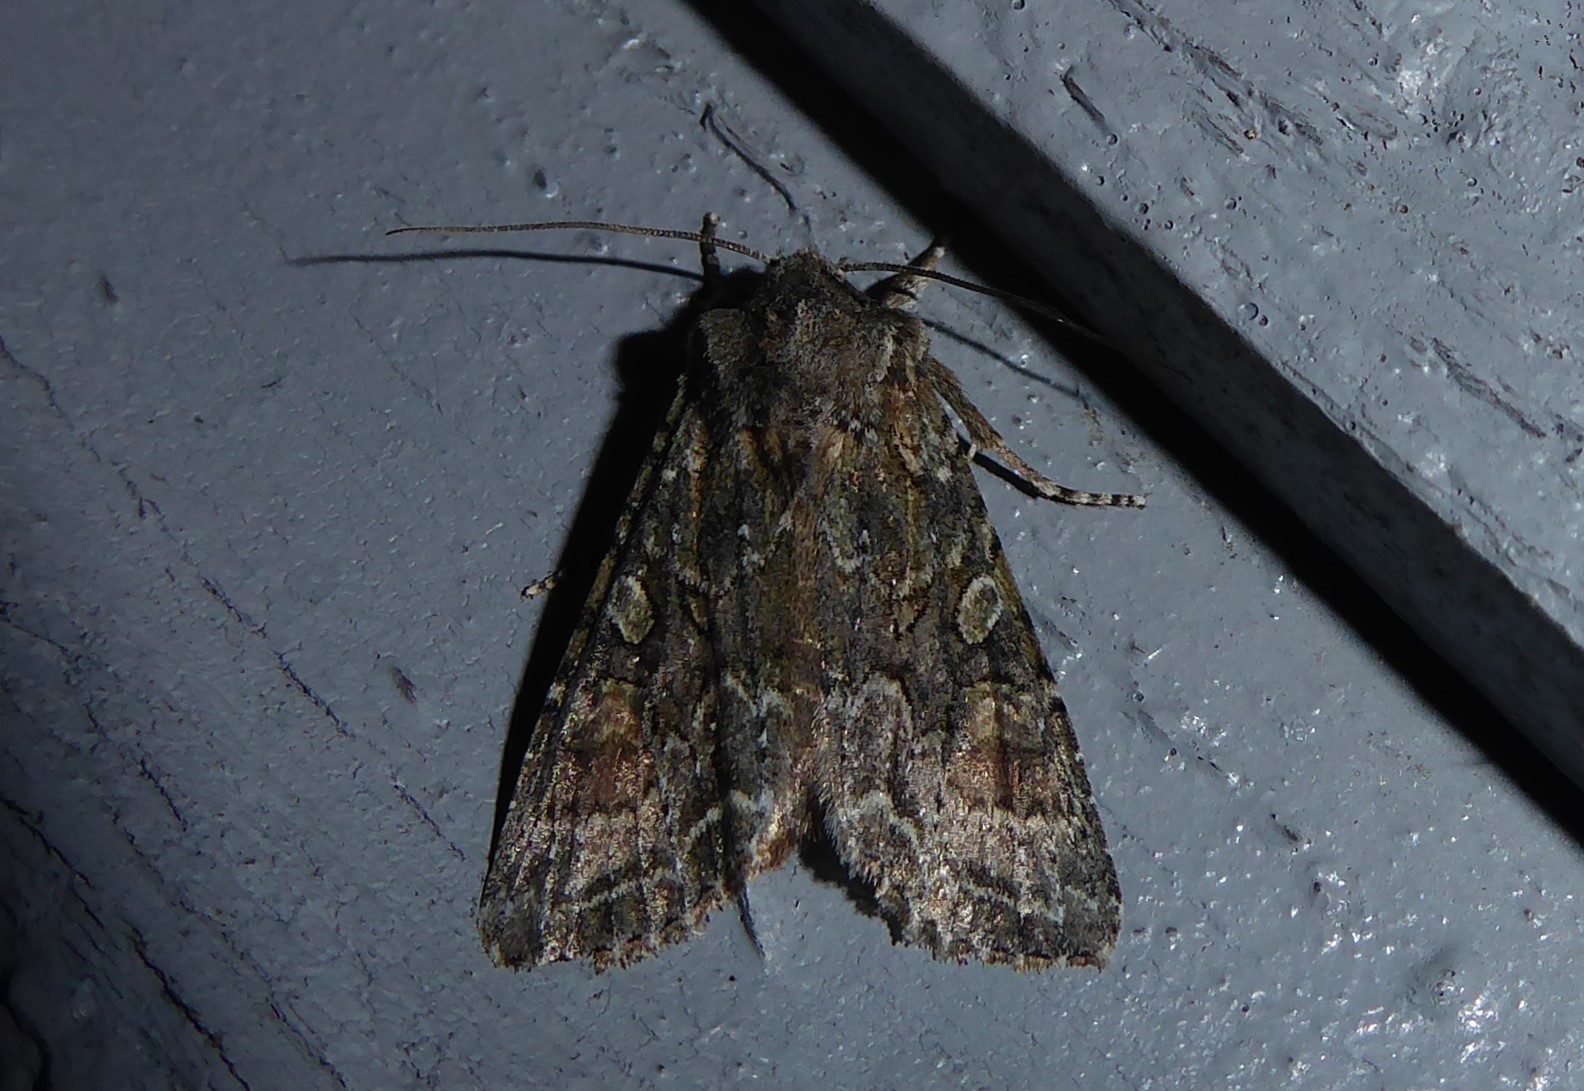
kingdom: Animalia
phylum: Arthropoda
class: Insecta
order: Lepidoptera
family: Noctuidae
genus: Ichneutica
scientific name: Ichneutica mutans
